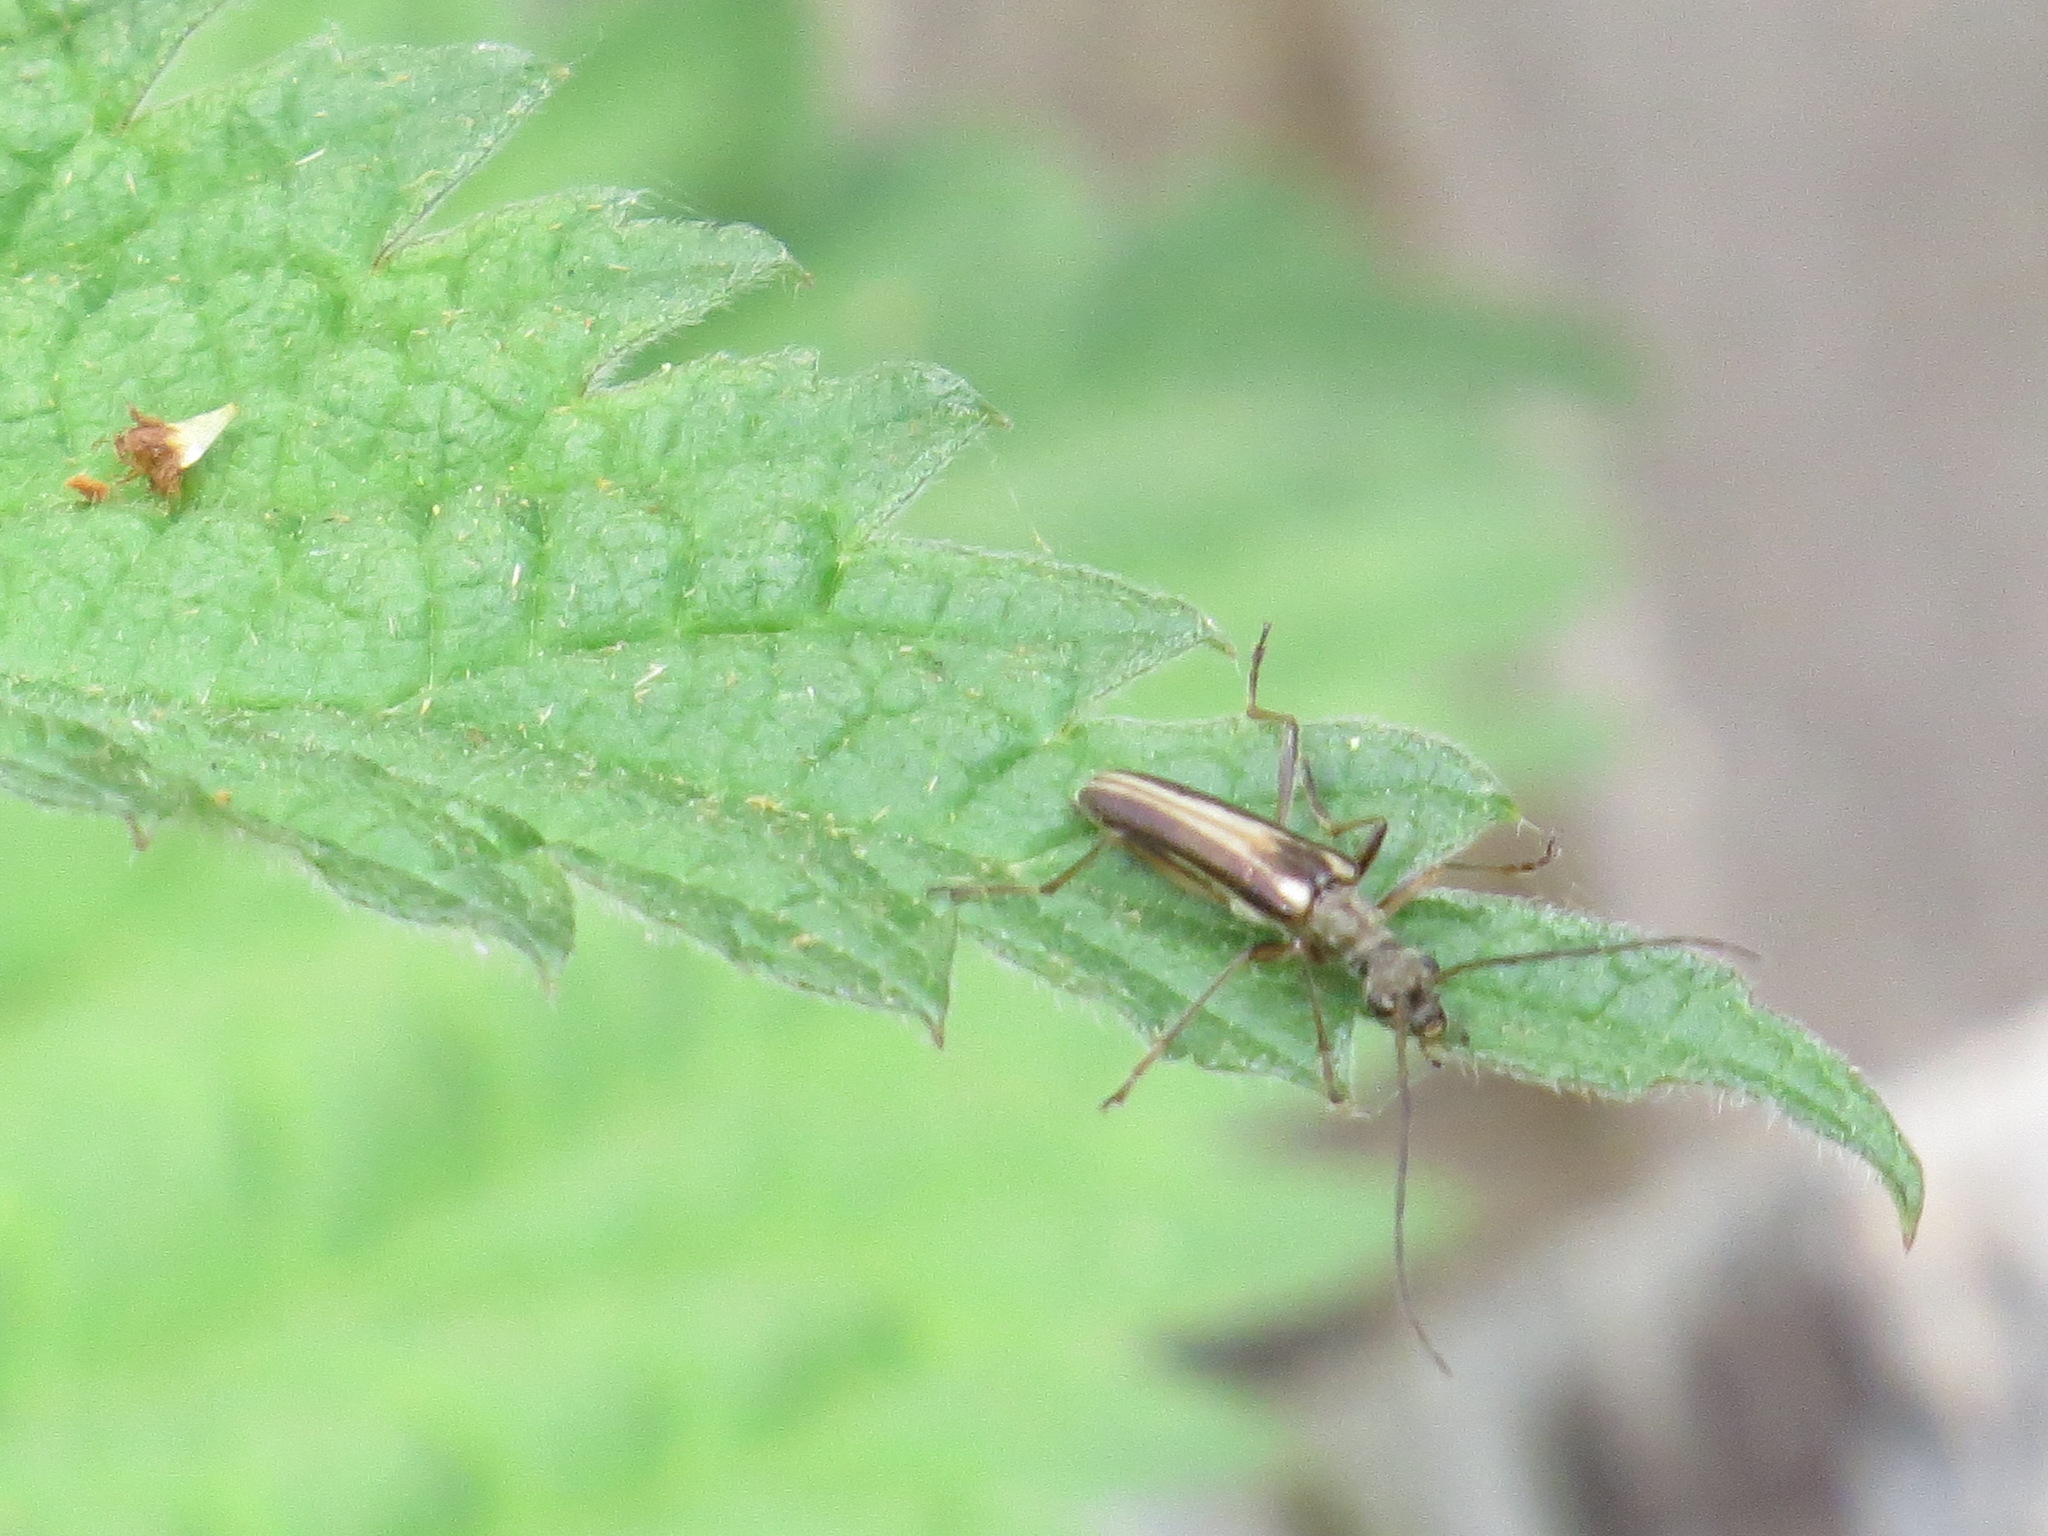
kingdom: Animalia
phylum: Arthropoda
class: Insecta
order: Coleoptera
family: Cerambycidae
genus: Leptalia
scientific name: Leptalia macilenta
